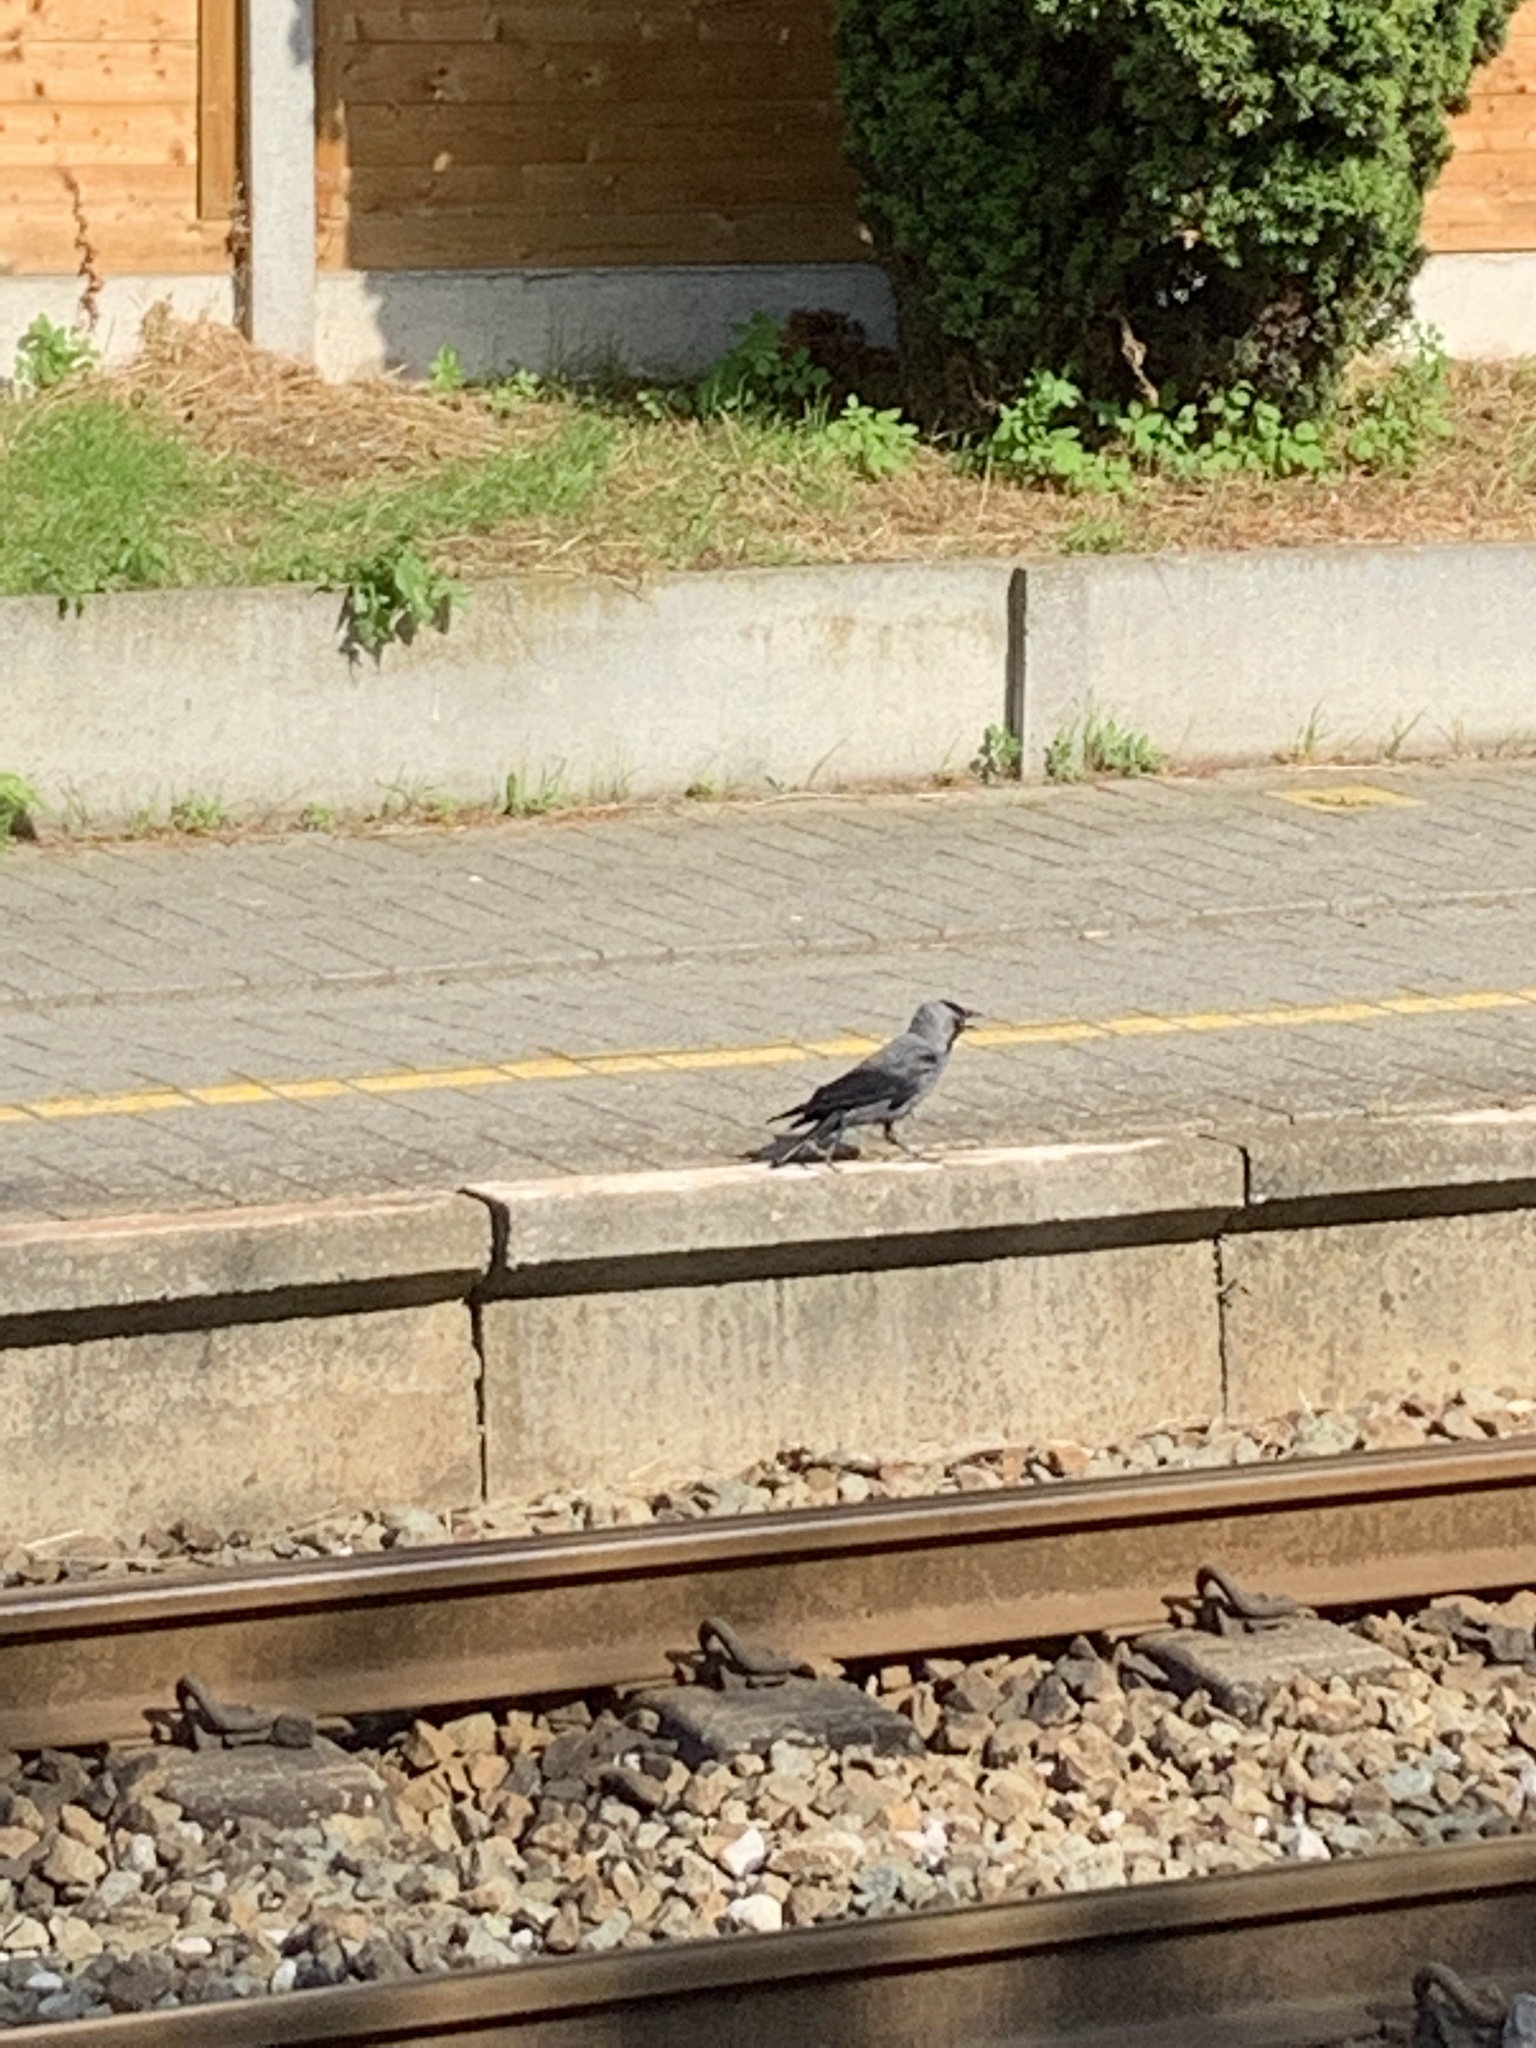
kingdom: Animalia
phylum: Chordata
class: Aves
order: Passeriformes
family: Corvidae
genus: Coloeus
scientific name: Coloeus monedula
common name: Western jackdaw
